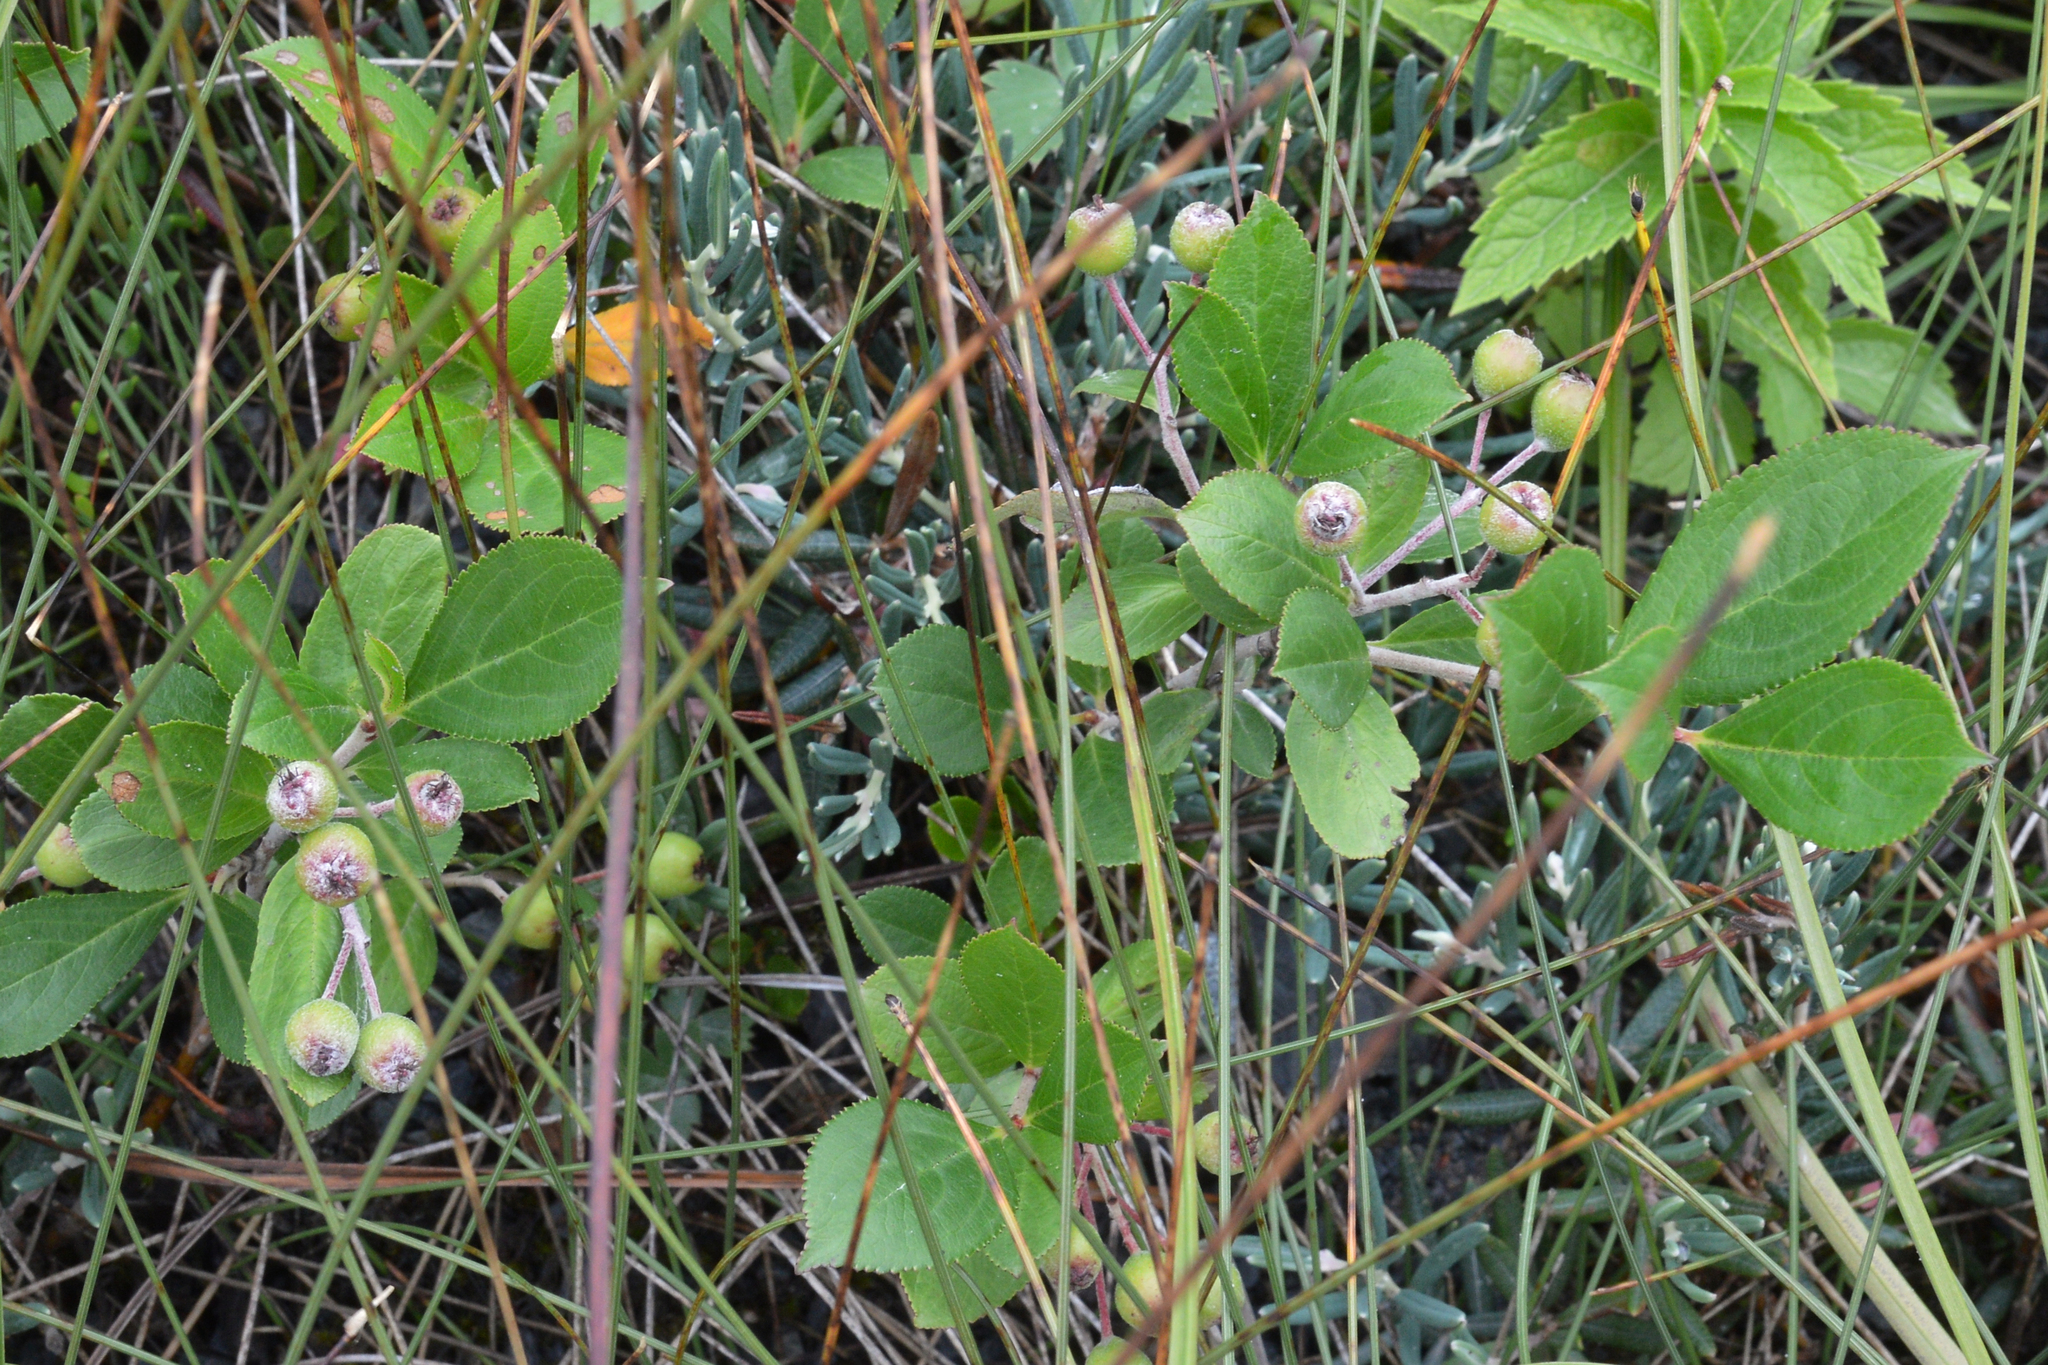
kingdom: Plantae
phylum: Tracheophyta
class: Magnoliopsida
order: Rosales
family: Rosaceae
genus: Aronia
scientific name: Aronia prunifolia
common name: Purple chokeberry
